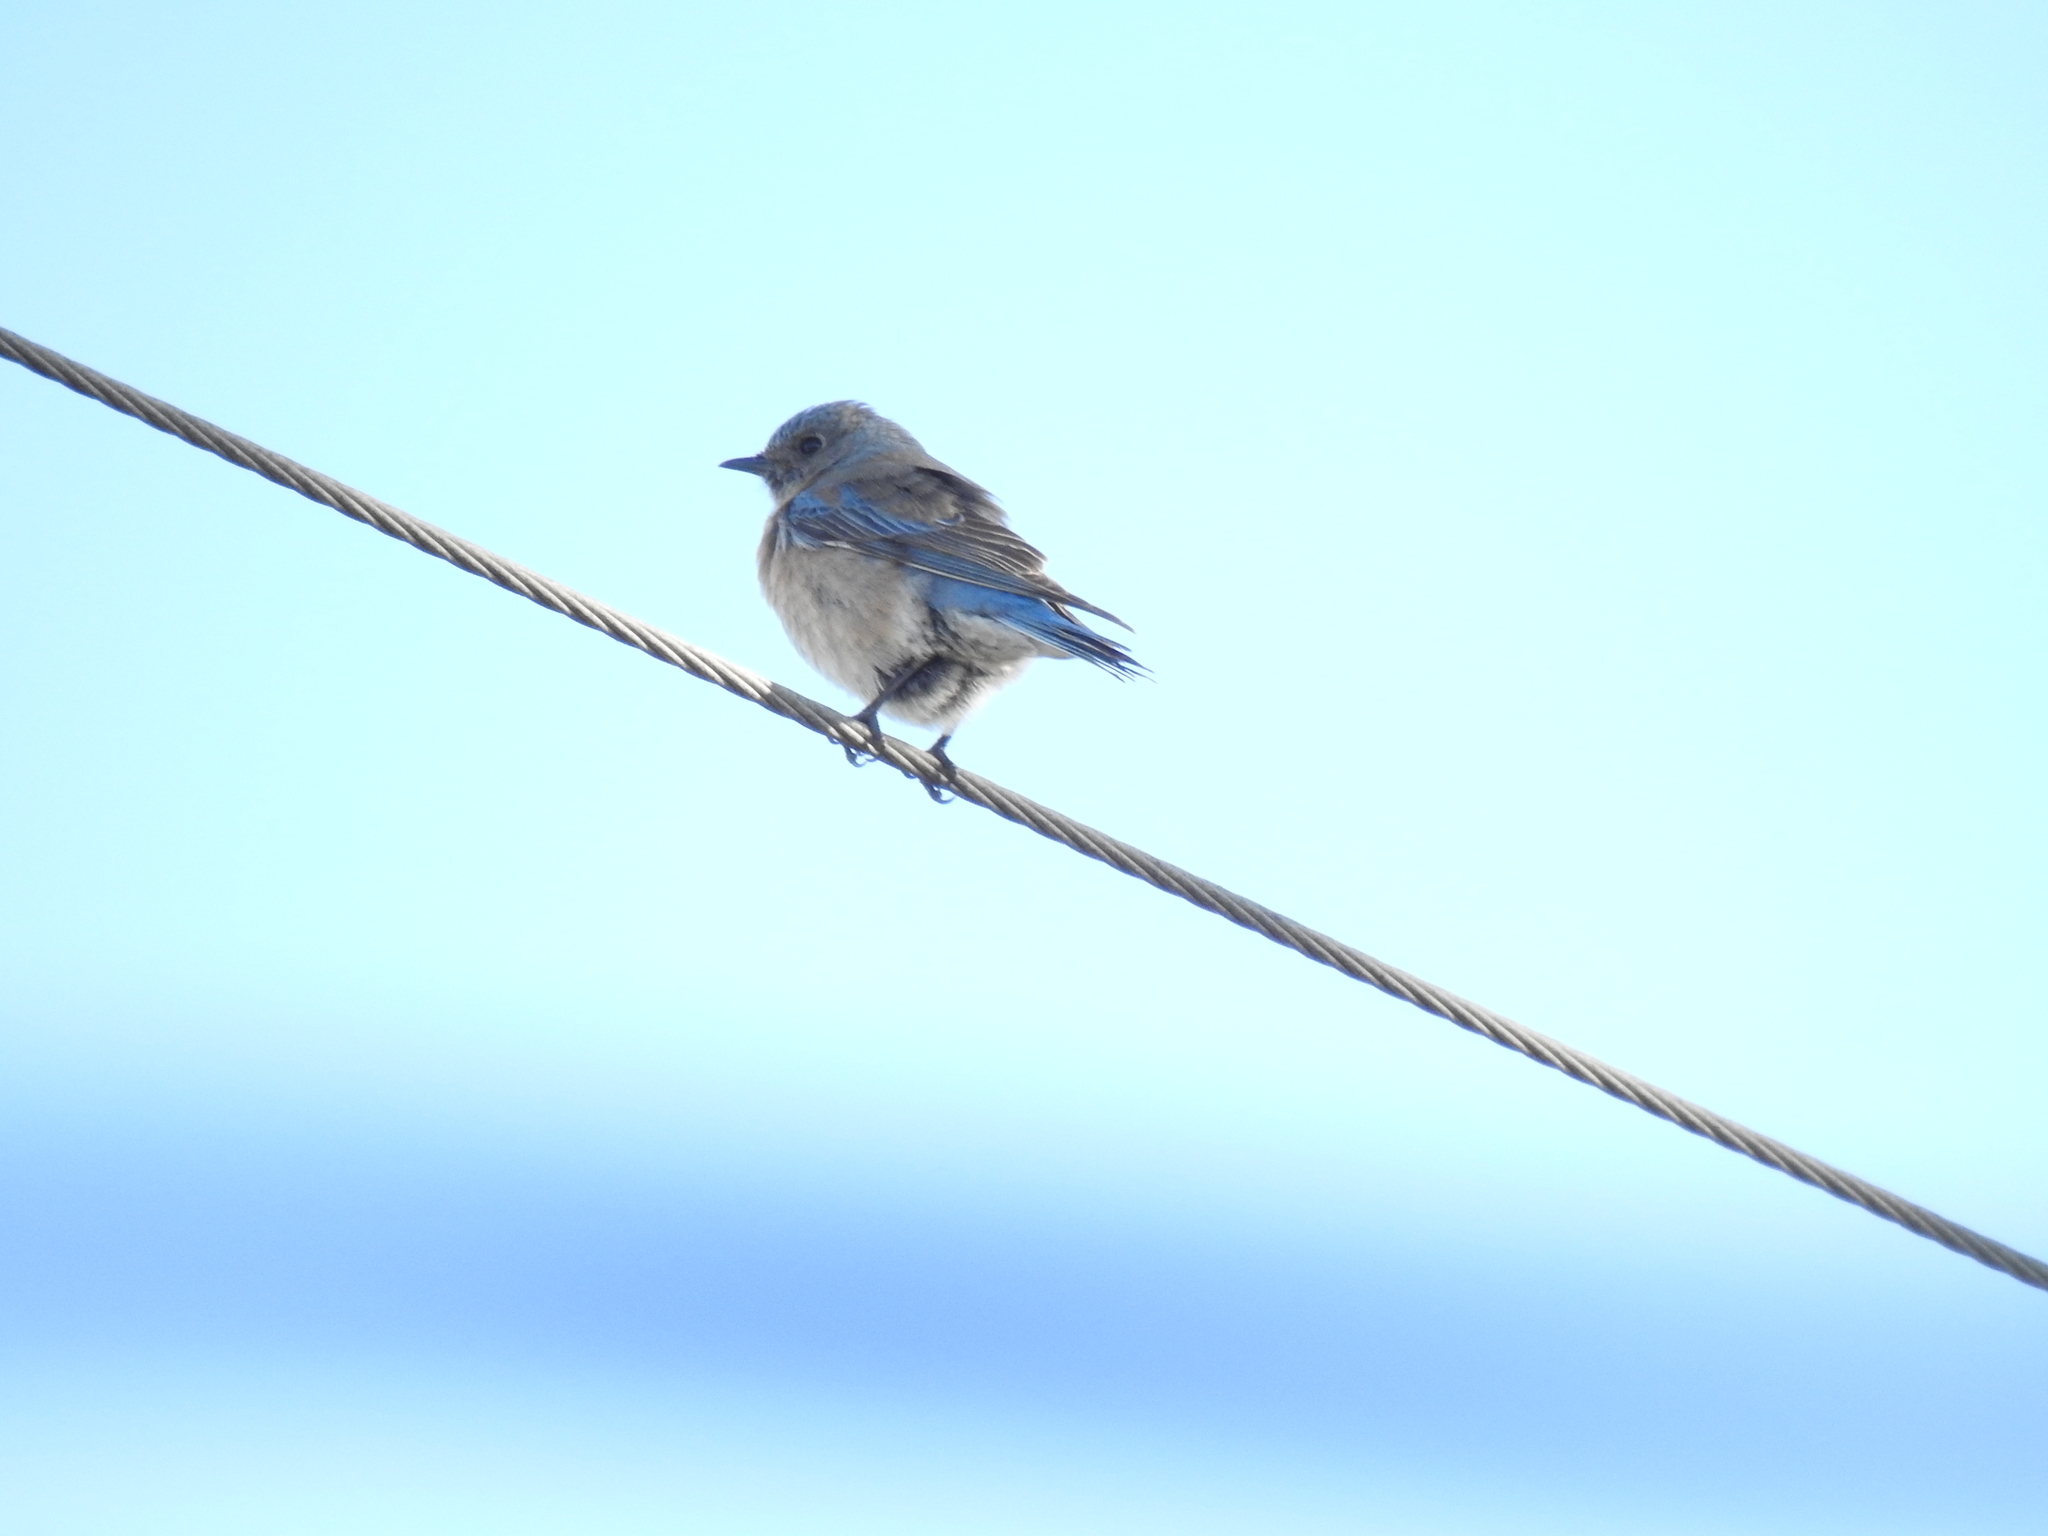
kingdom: Animalia
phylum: Chordata
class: Aves
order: Passeriformes
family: Turdidae
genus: Sialia
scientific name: Sialia mexicana
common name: Western bluebird
